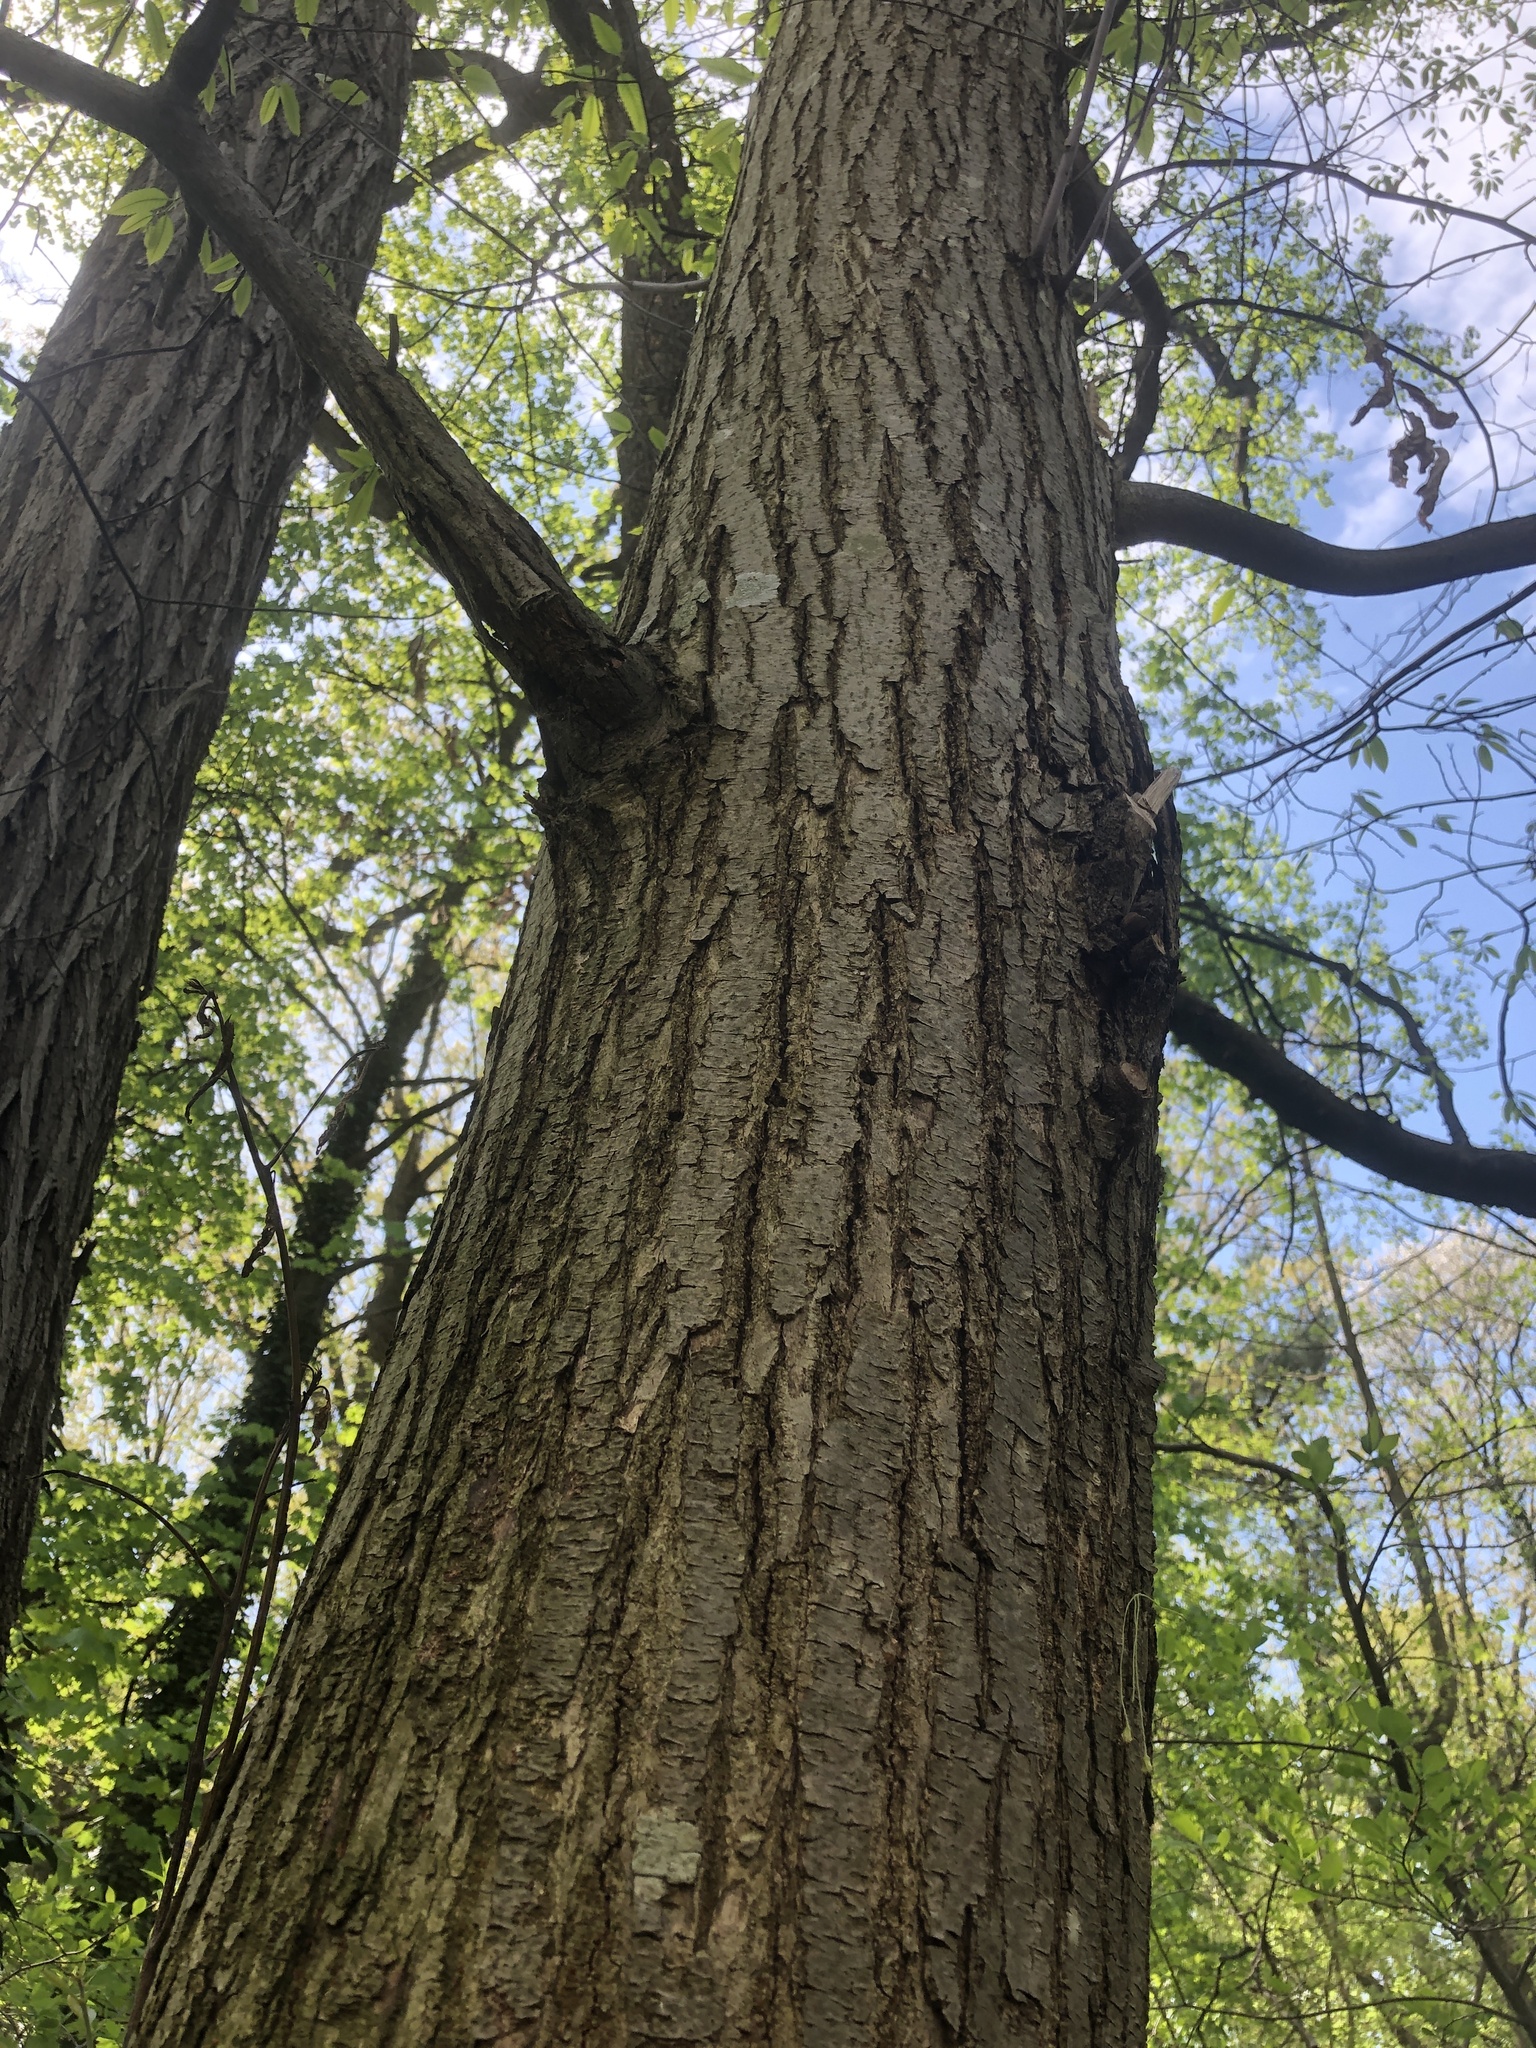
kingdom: Plantae
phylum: Tracheophyta
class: Magnoliopsida
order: Fagales
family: Fagaceae
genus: Castanea
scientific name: Castanea dentata
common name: American chestnut
